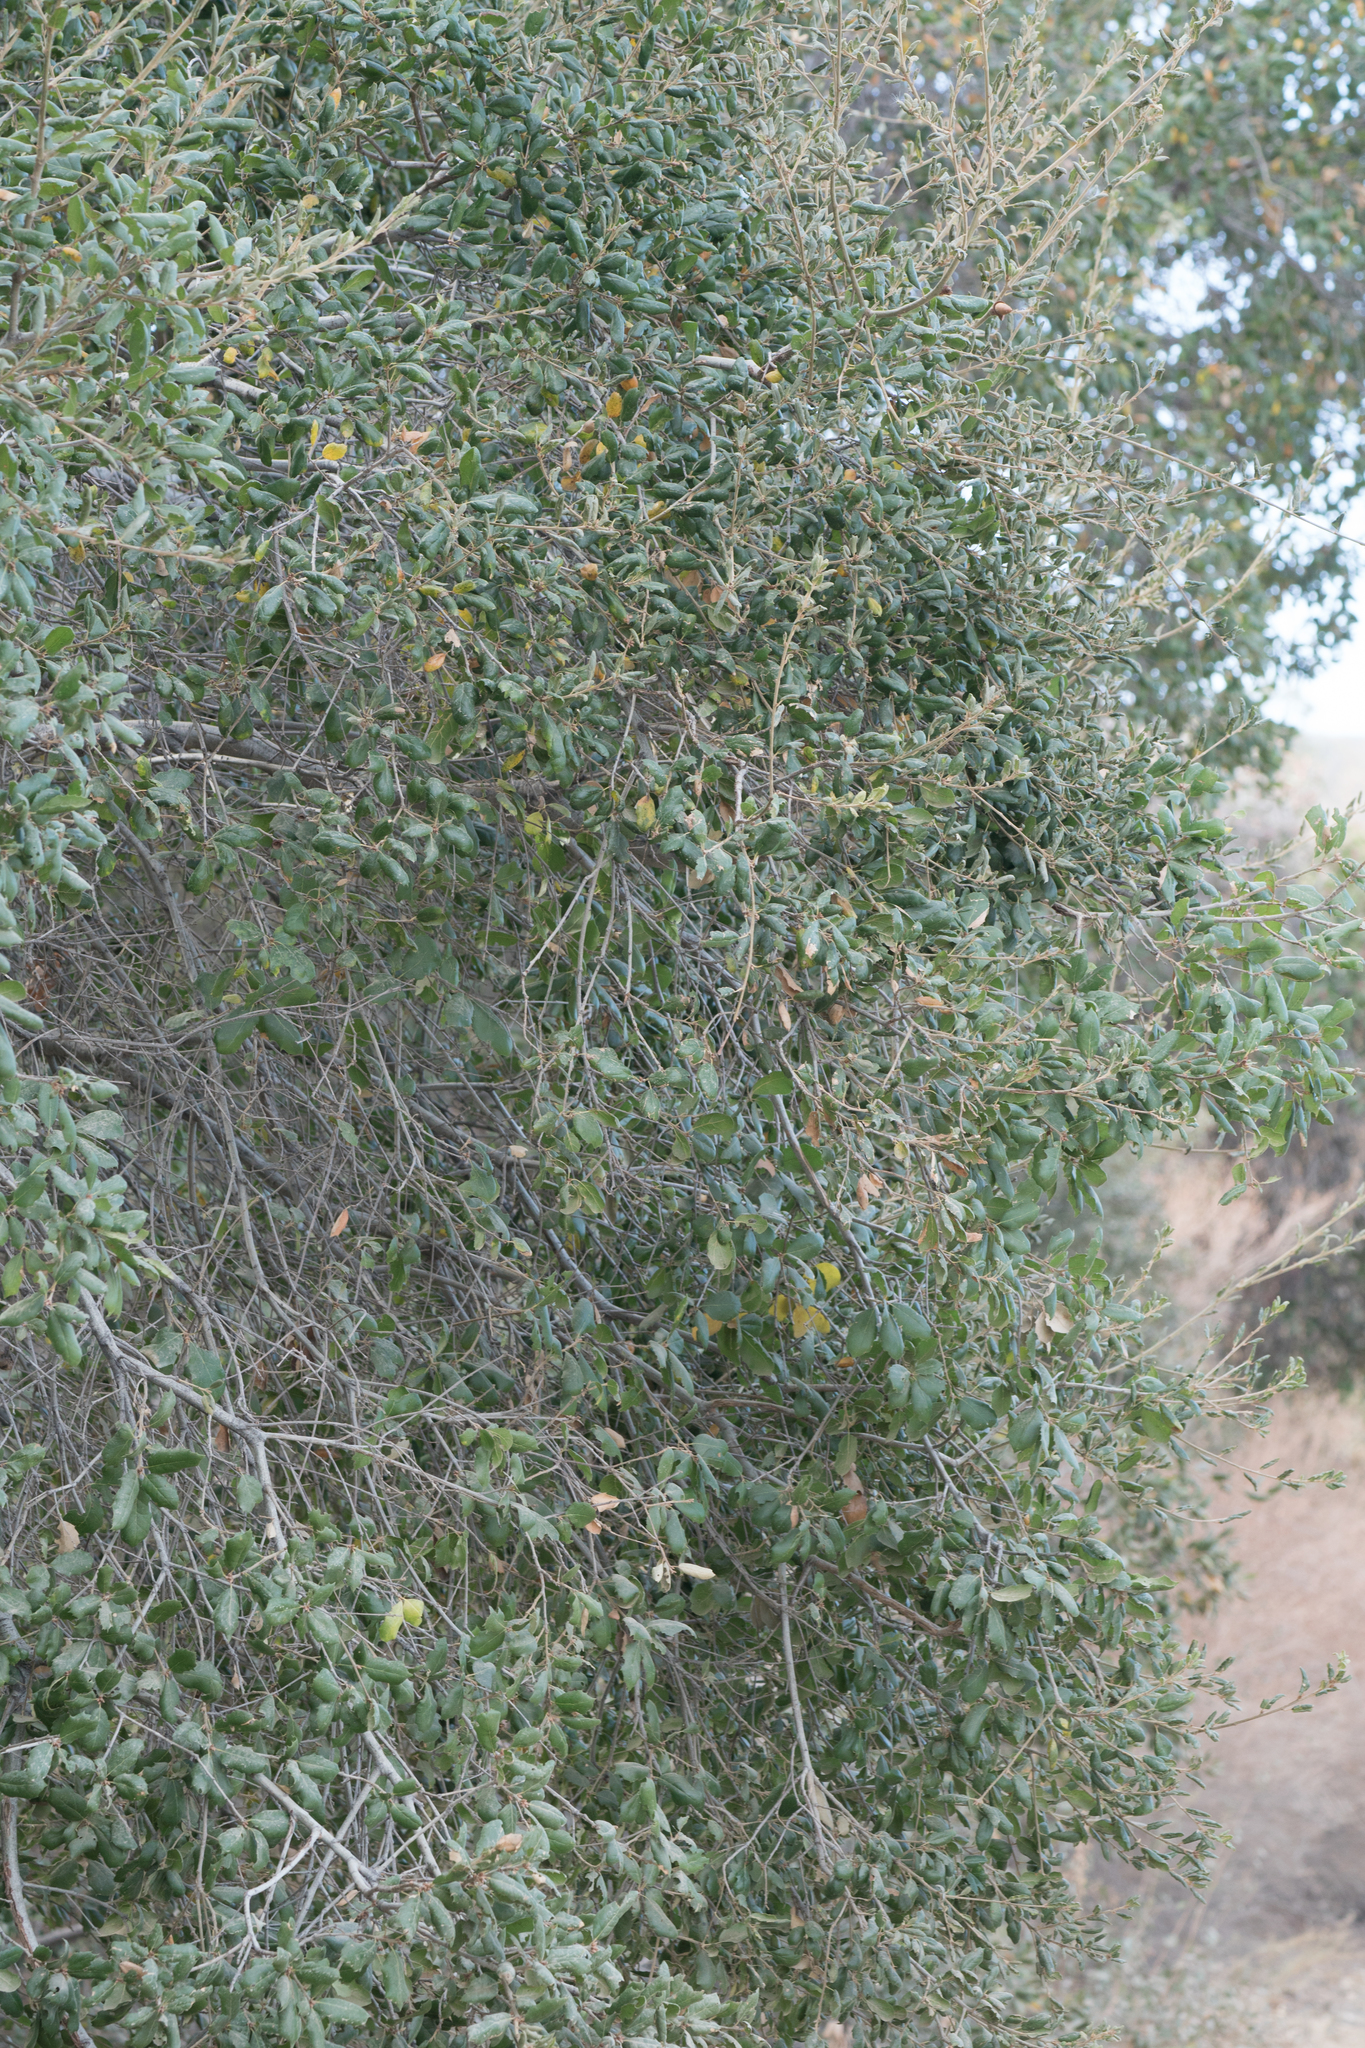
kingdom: Plantae
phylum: Tracheophyta
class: Magnoliopsida
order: Fagales
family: Fagaceae
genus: Quercus
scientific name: Quercus agrifolia
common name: California live oak
